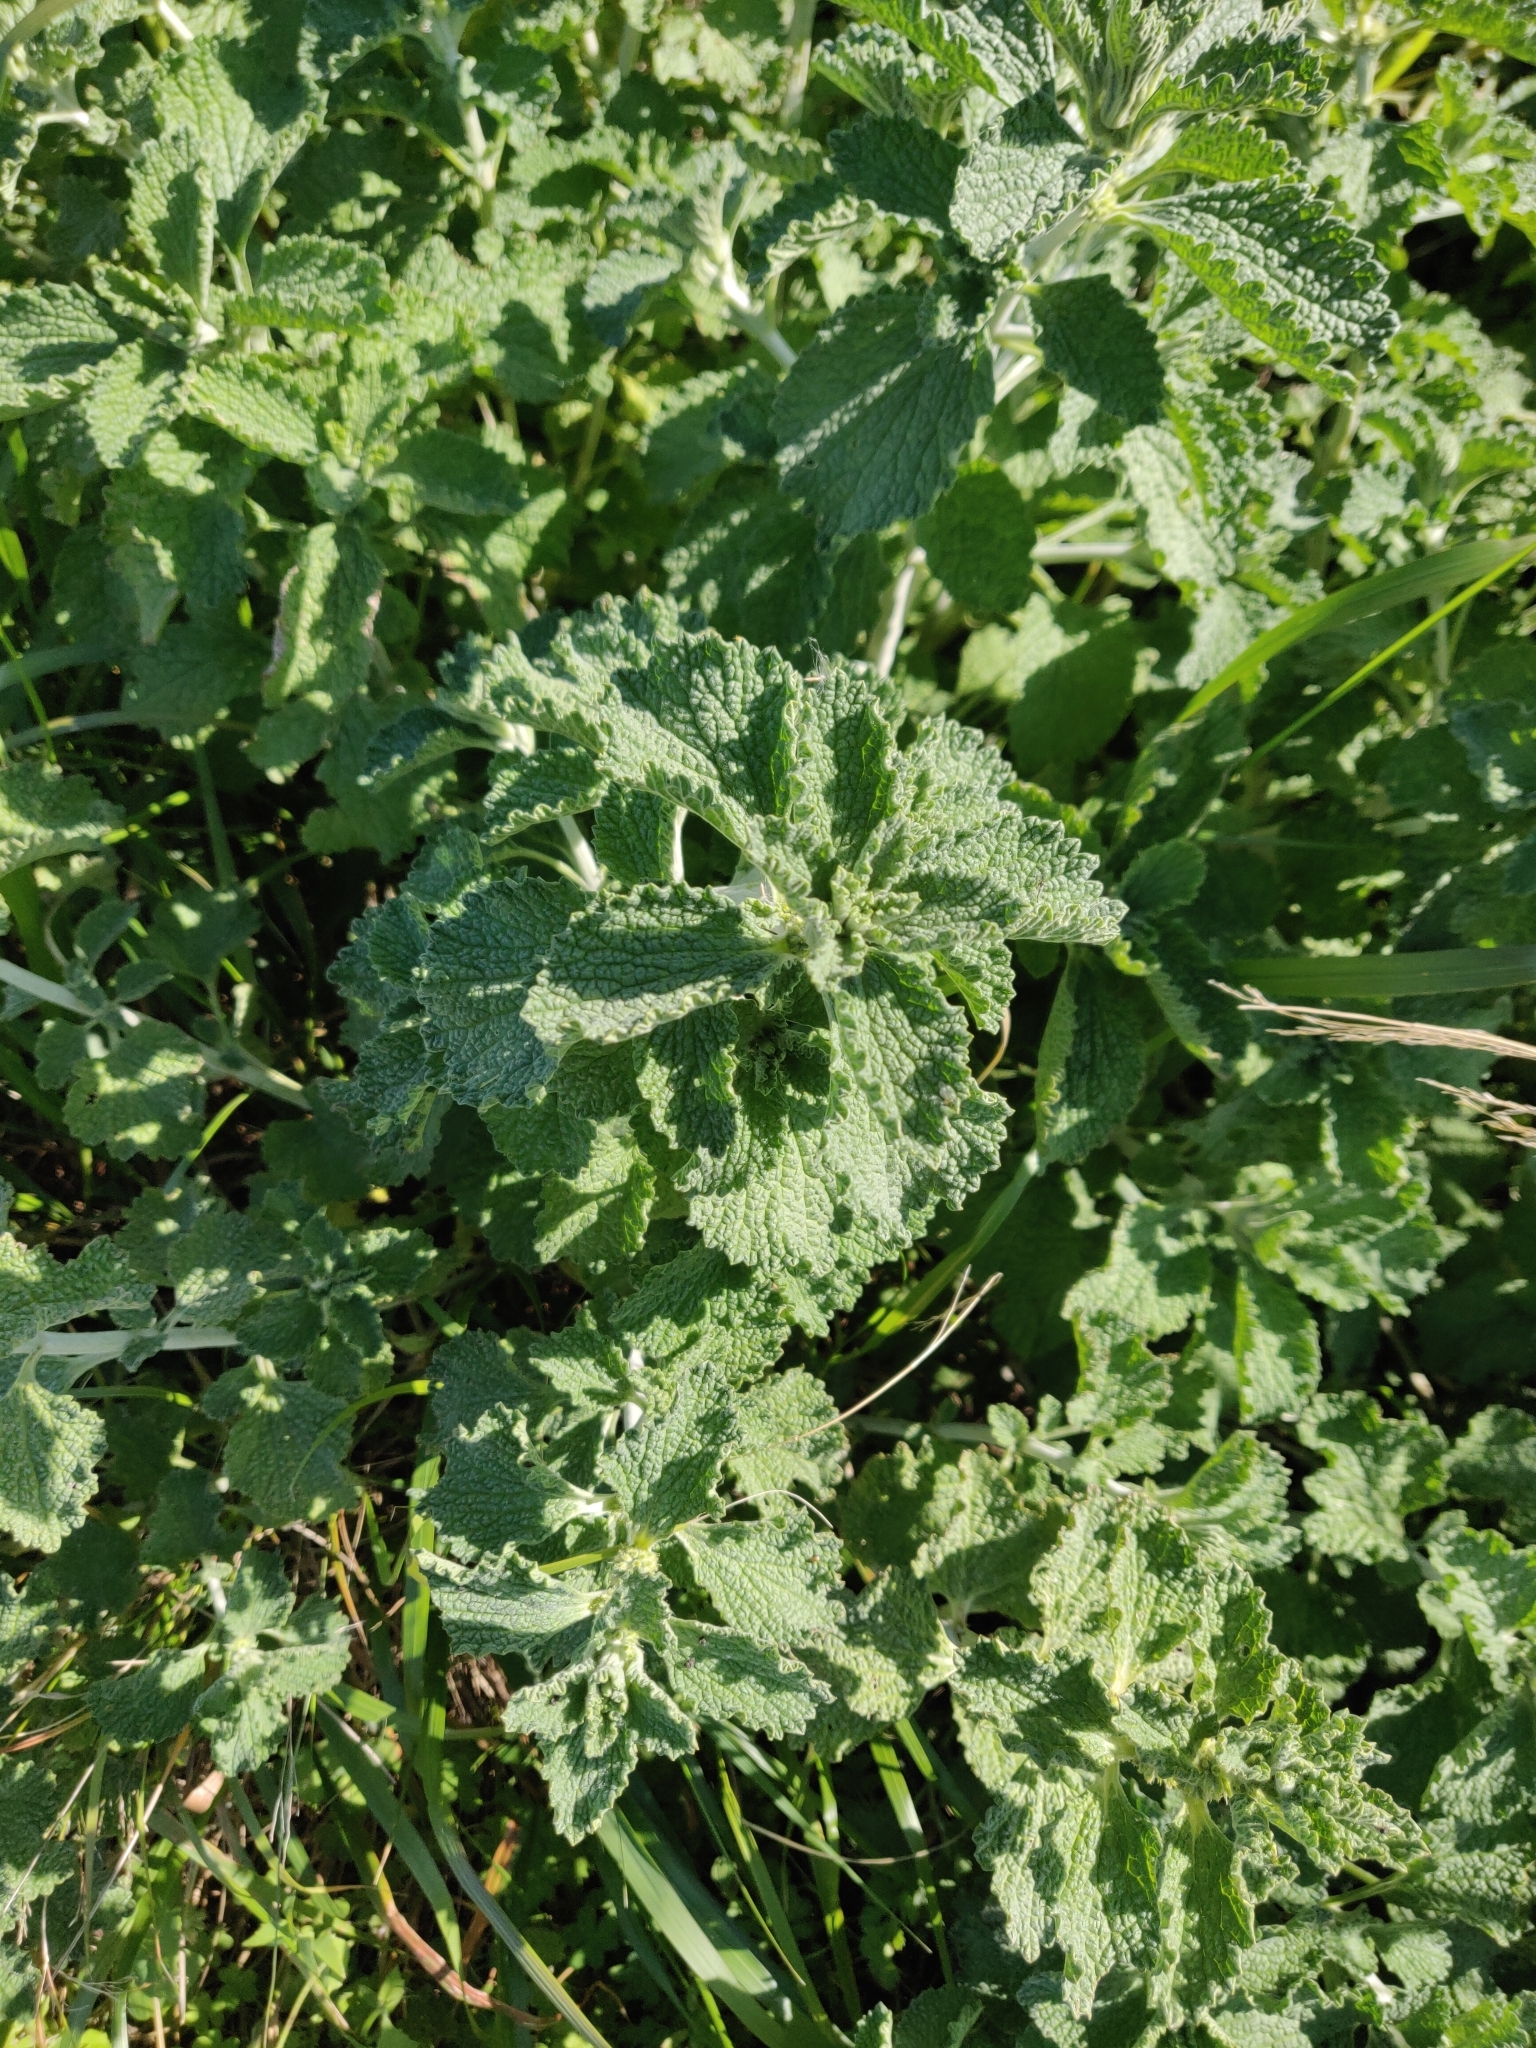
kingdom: Plantae
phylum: Tracheophyta
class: Magnoliopsida
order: Lamiales
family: Lamiaceae
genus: Marrubium
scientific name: Marrubium vulgare
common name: Horehound
